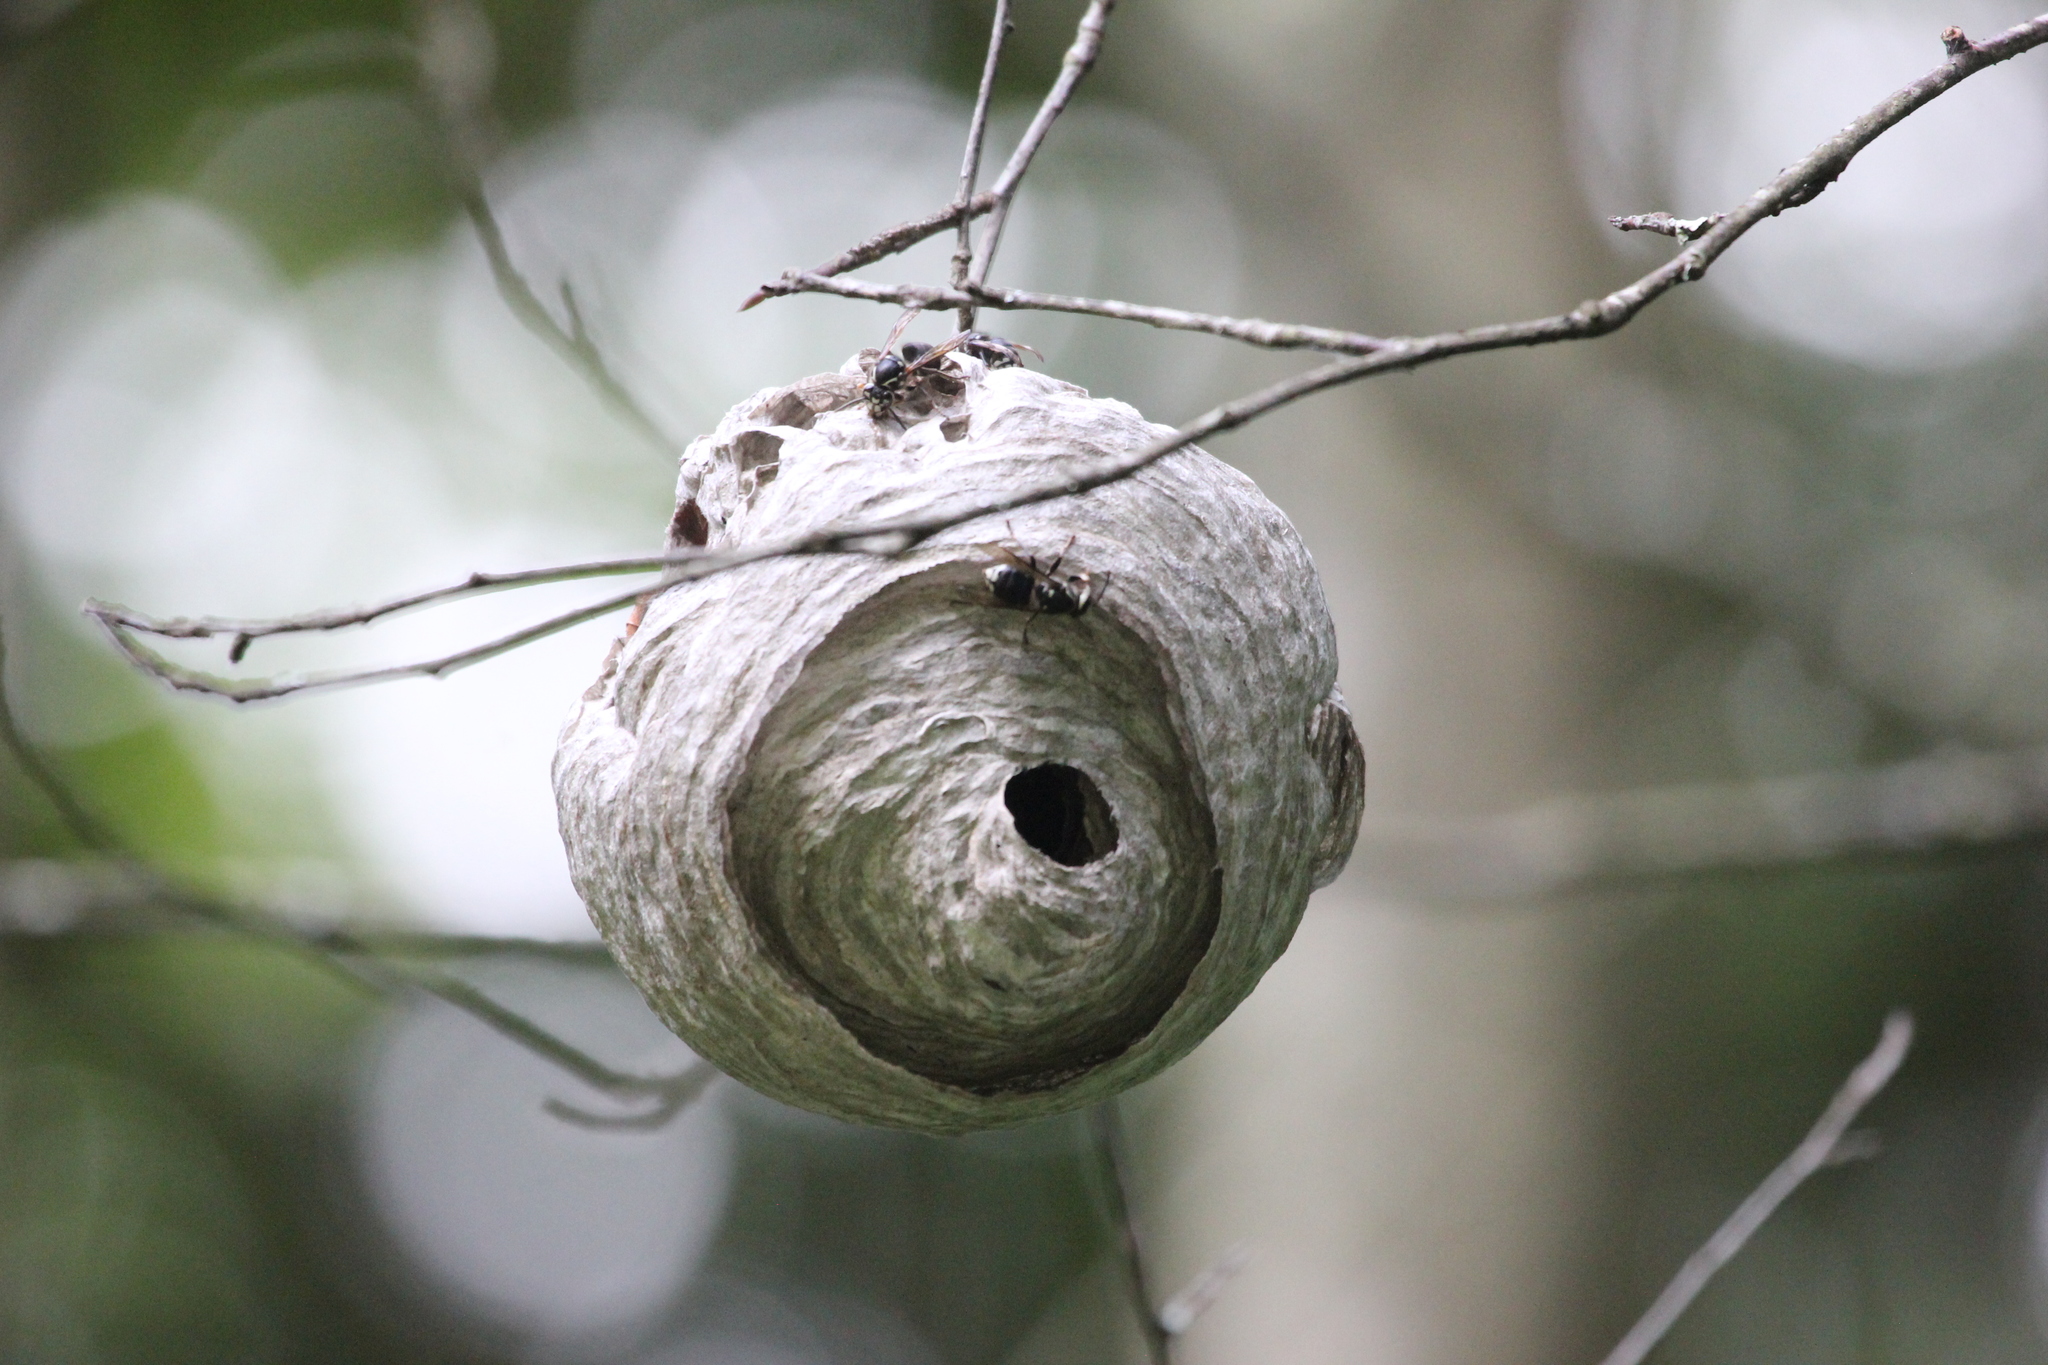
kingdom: Animalia
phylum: Arthropoda
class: Insecta
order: Hymenoptera
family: Vespidae
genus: Dolichovespula
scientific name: Dolichovespula maculata
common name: Bald-faced hornet
